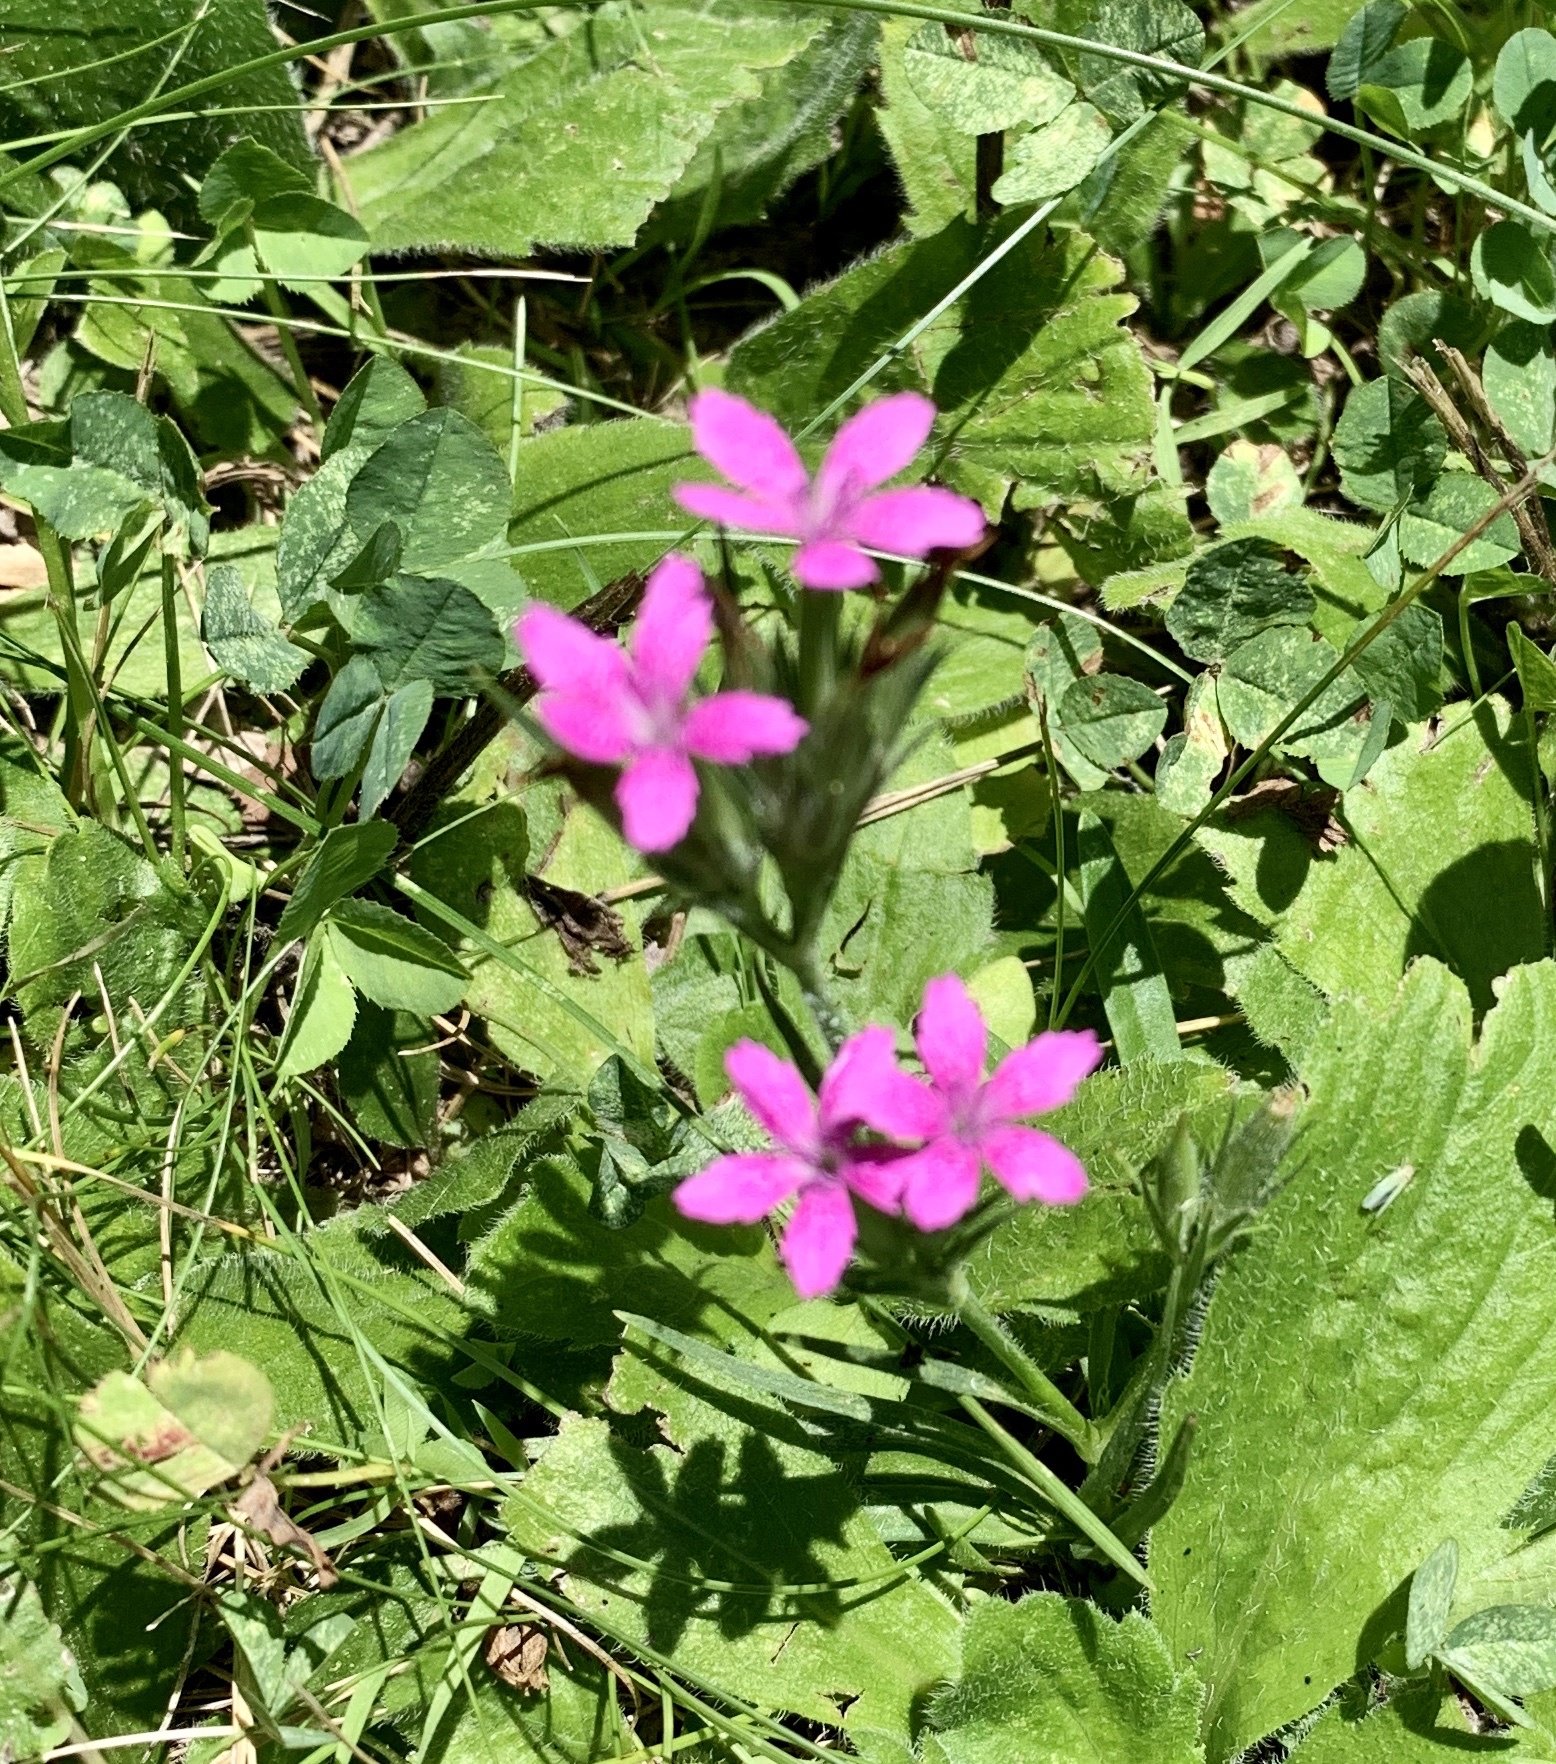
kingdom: Plantae
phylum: Tracheophyta
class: Magnoliopsida
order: Caryophyllales
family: Caryophyllaceae
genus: Dianthus
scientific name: Dianthus armeria
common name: Deptford pink
